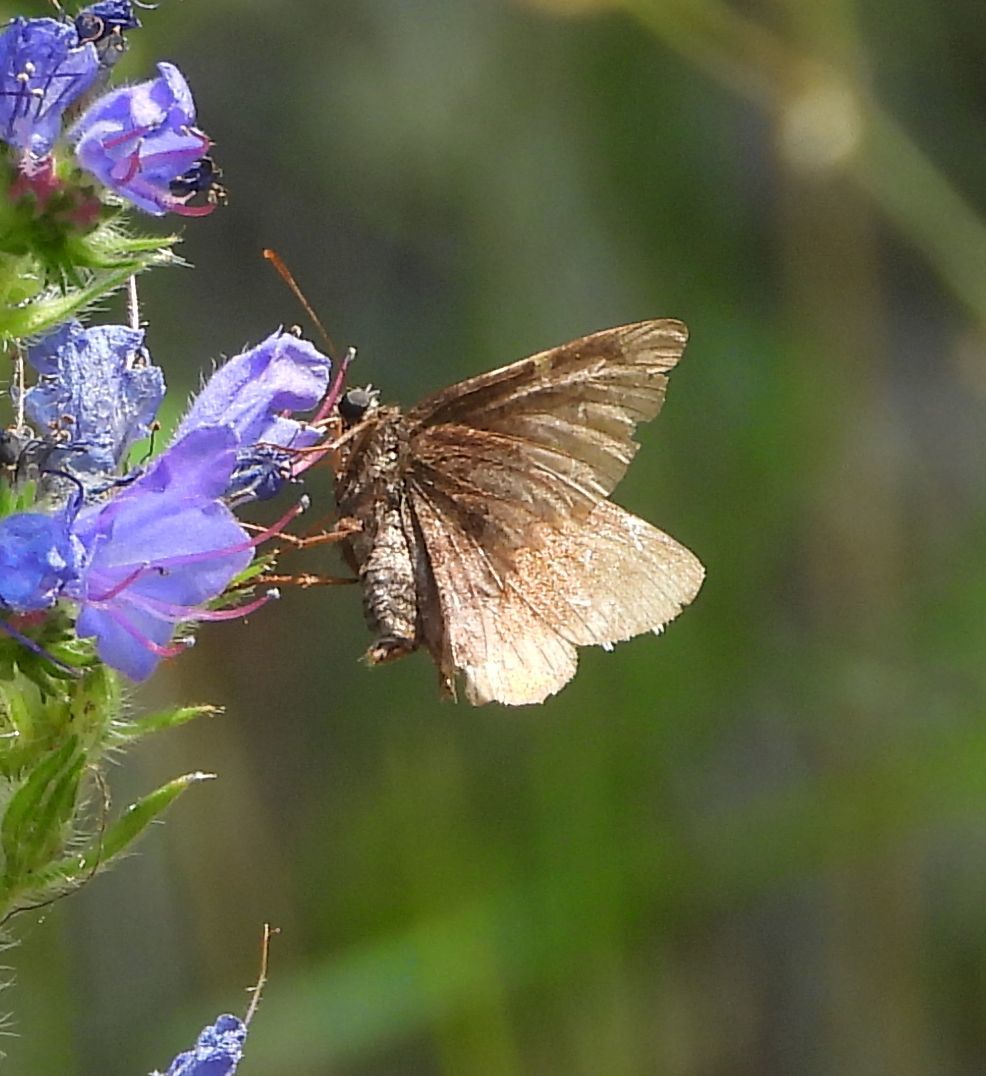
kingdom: Animalia
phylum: Arthropoda
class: Insecta
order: Lepidoptera
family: Hesperiidae
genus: Thorybes
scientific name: Thorybes pylades
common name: Northern cloudywing
